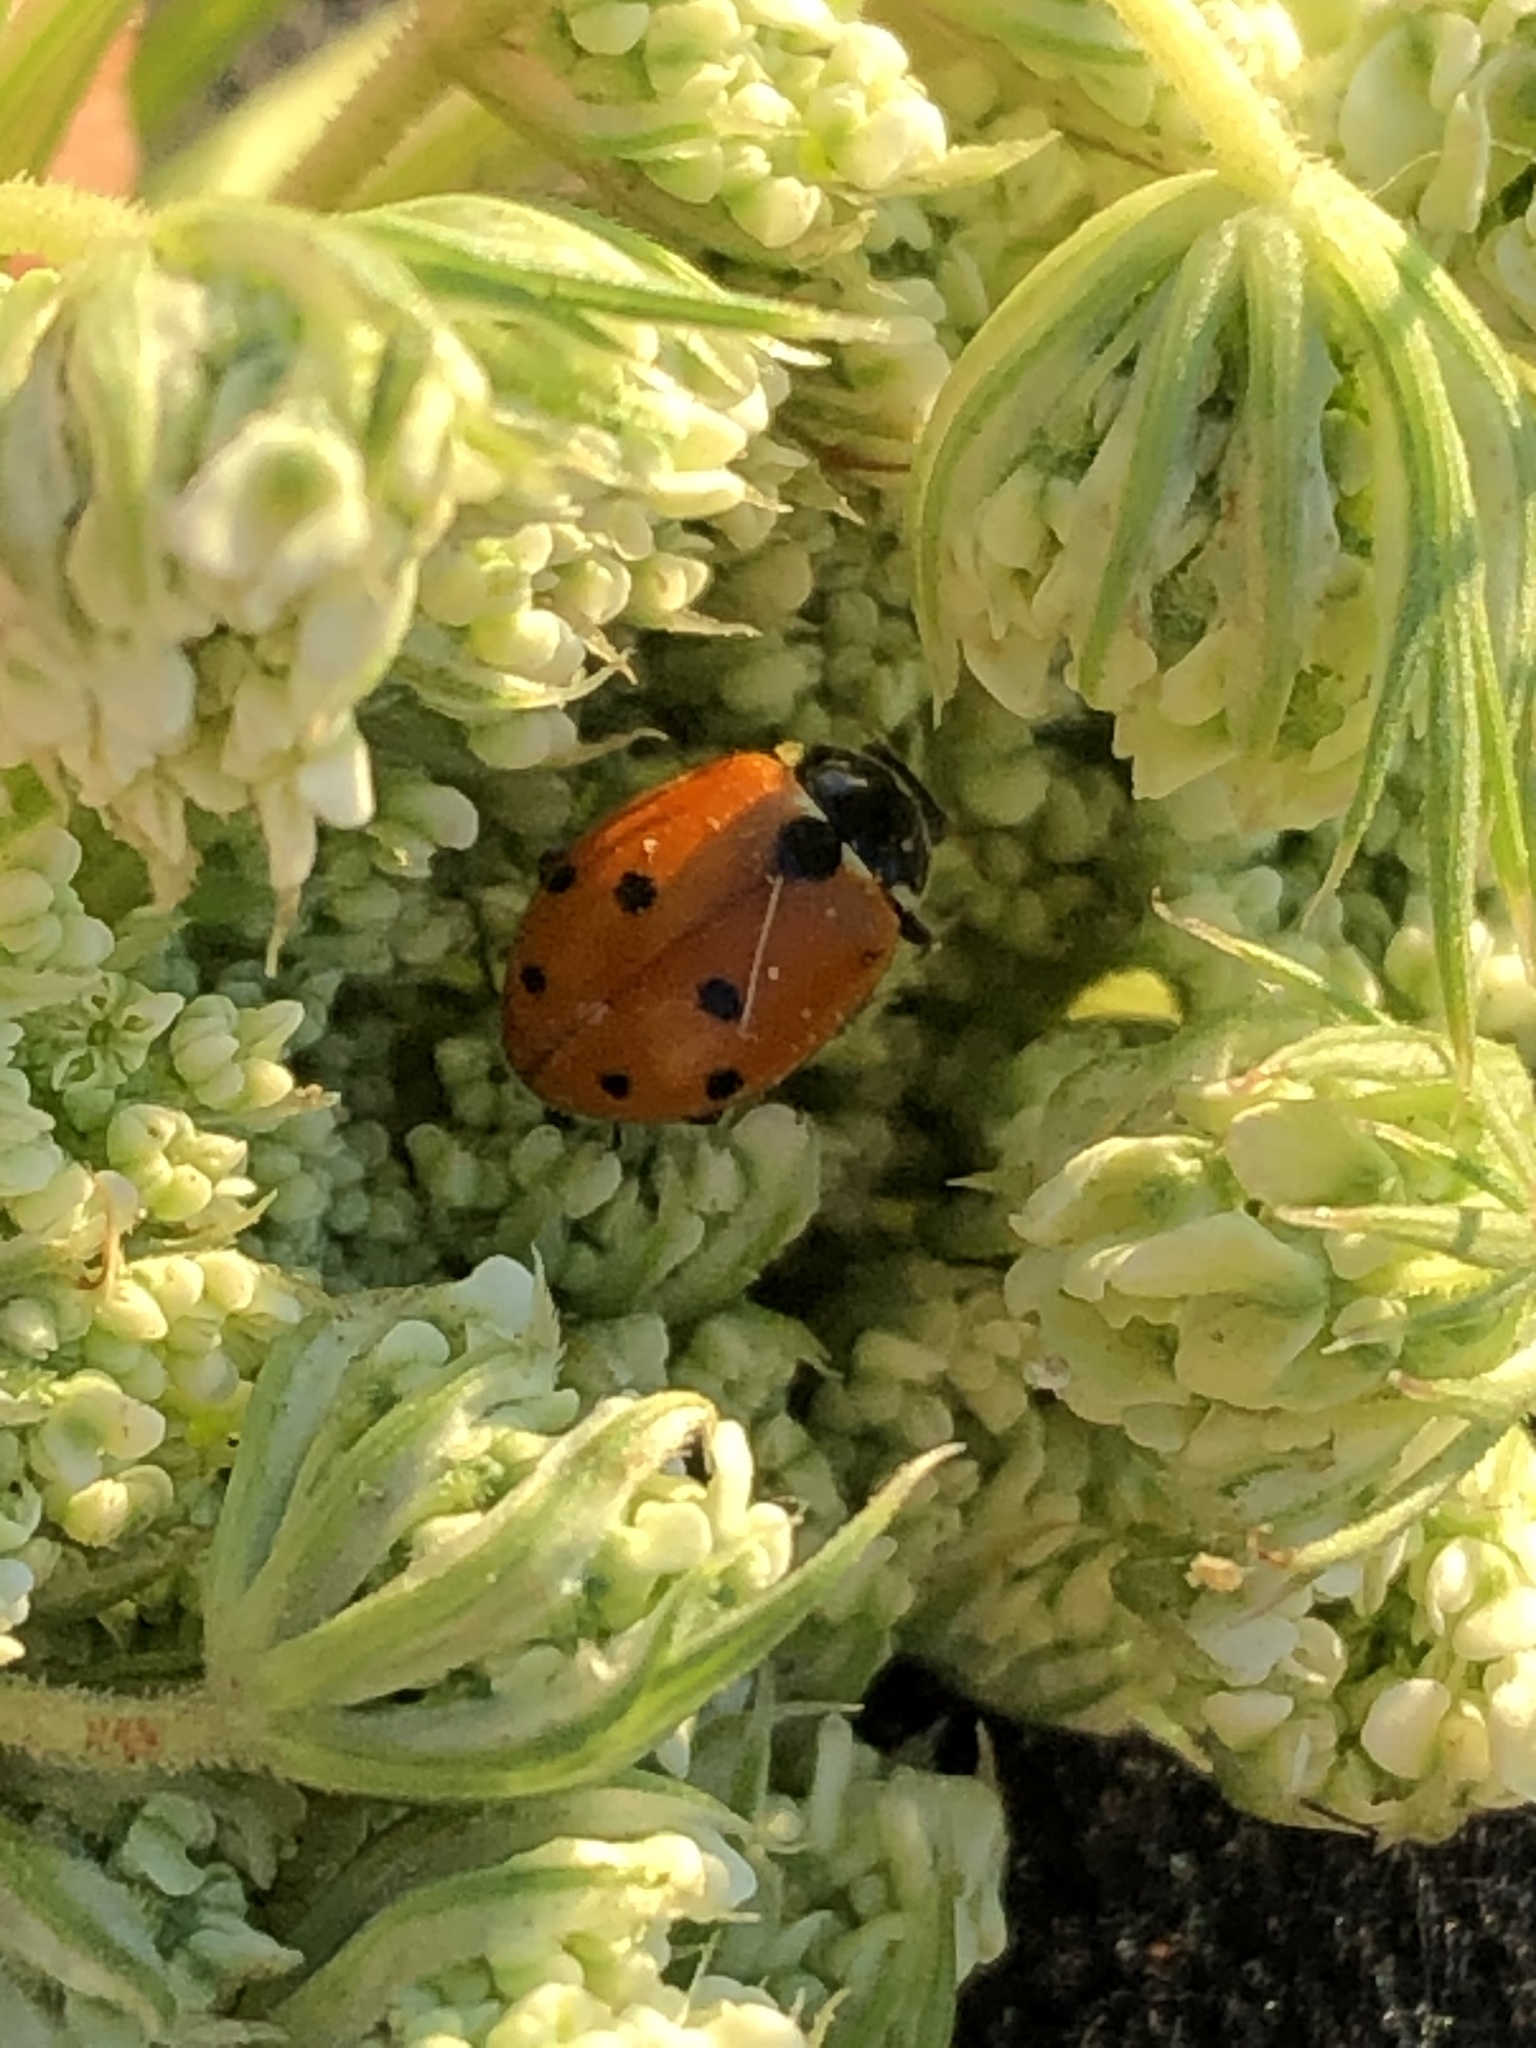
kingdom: Animalia
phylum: Arthropoda
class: Insecta
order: Coleoptera
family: Coccinellidae
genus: Hippodamia
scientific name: Hippodamia variegata
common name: Ladybird beetle
